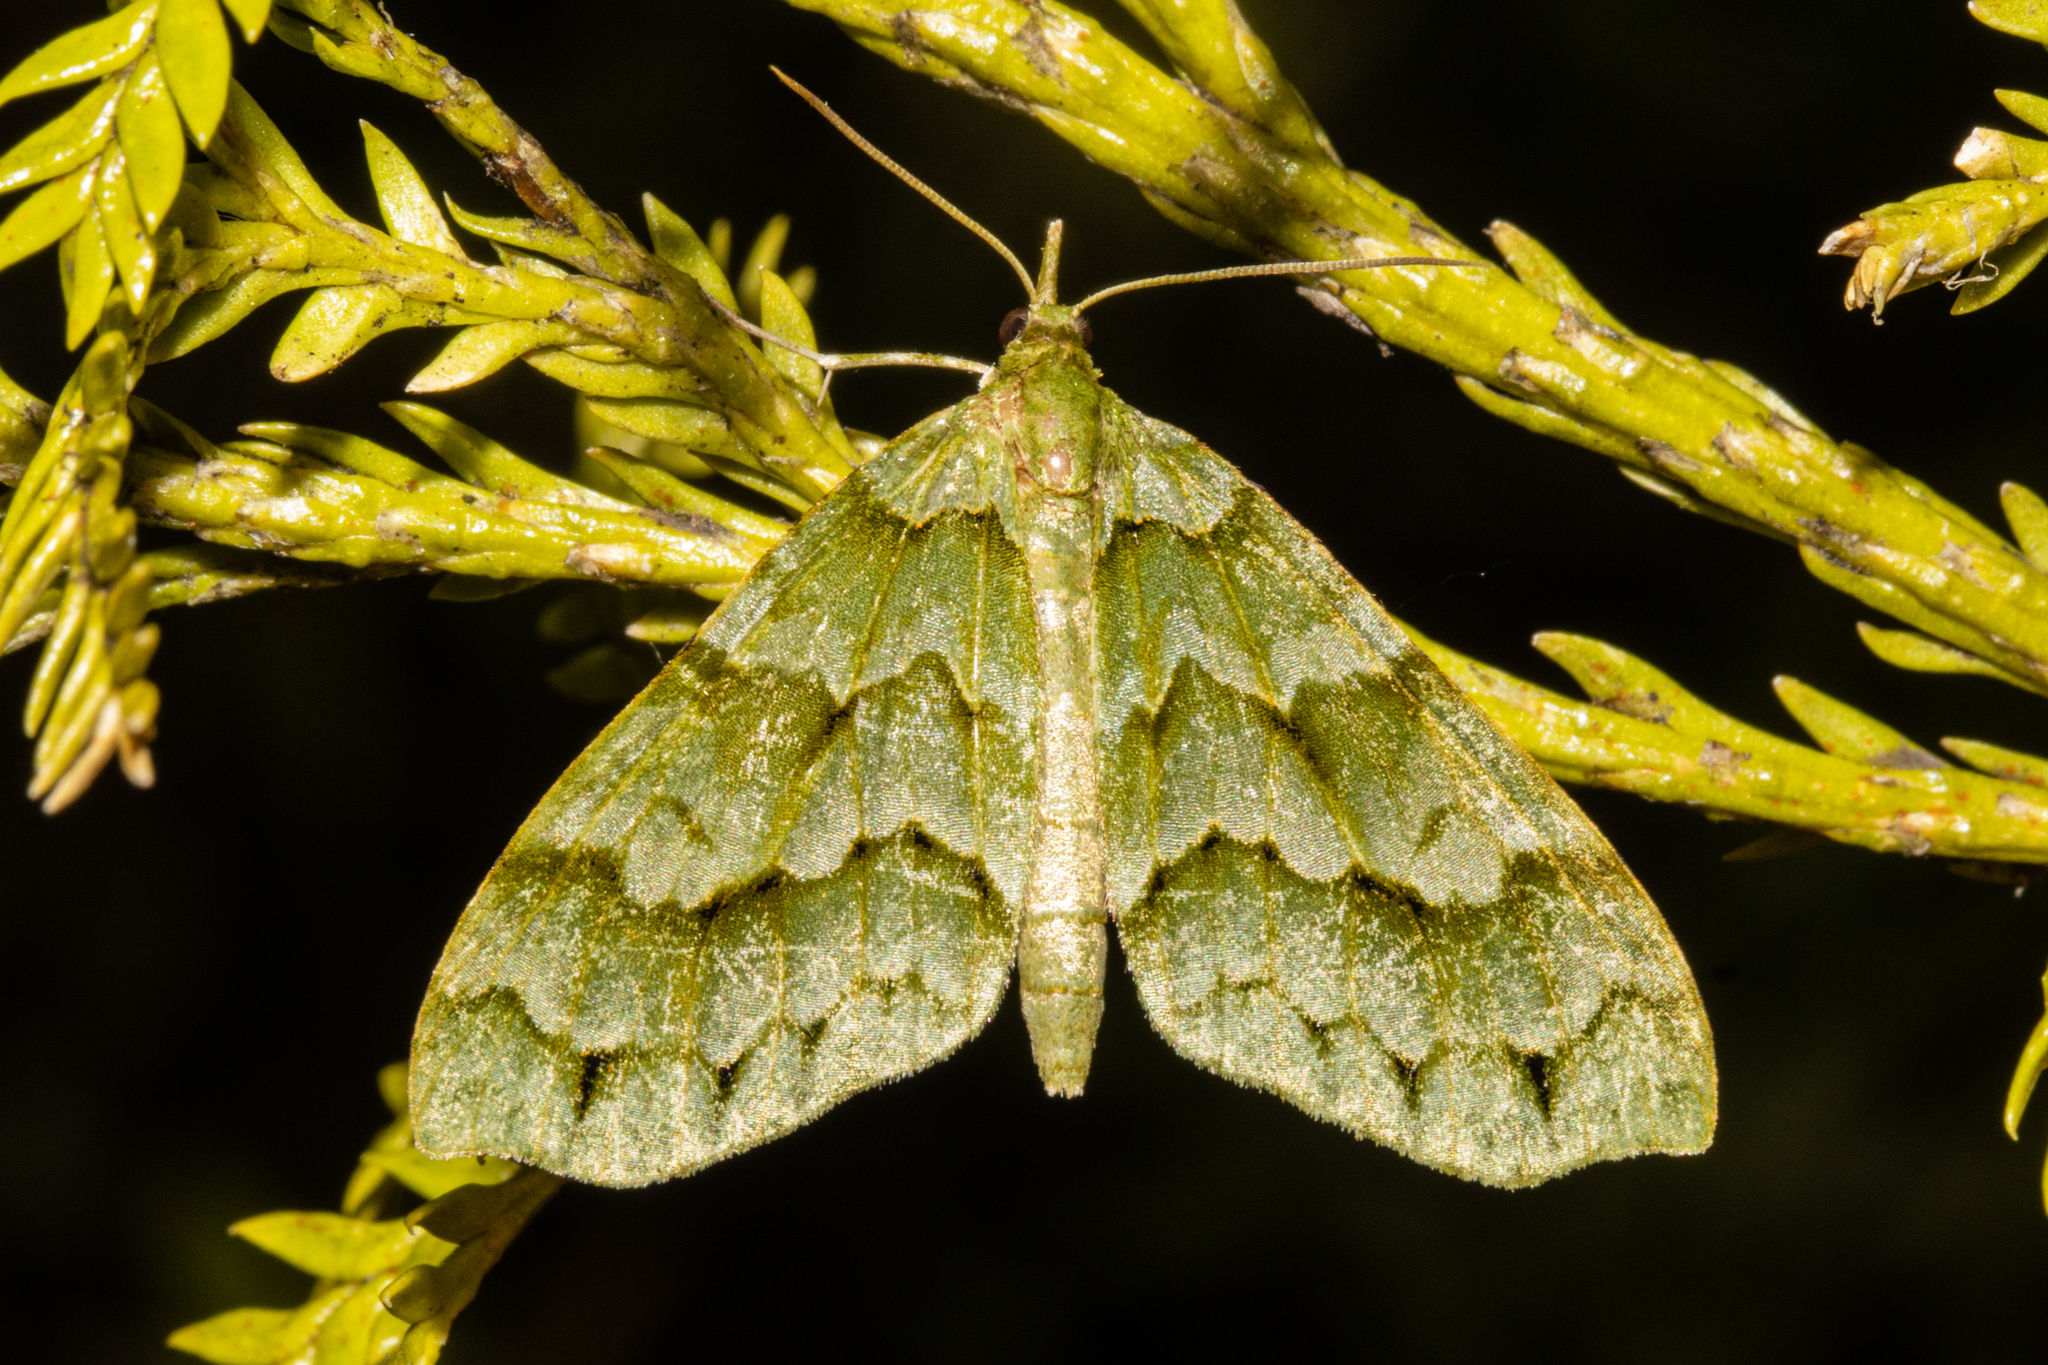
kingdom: Animalia
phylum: Arthropoda
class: Insecta
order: Lepidoptera
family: Geometridae
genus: Tatosoma
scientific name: Tatosoma lestevata
